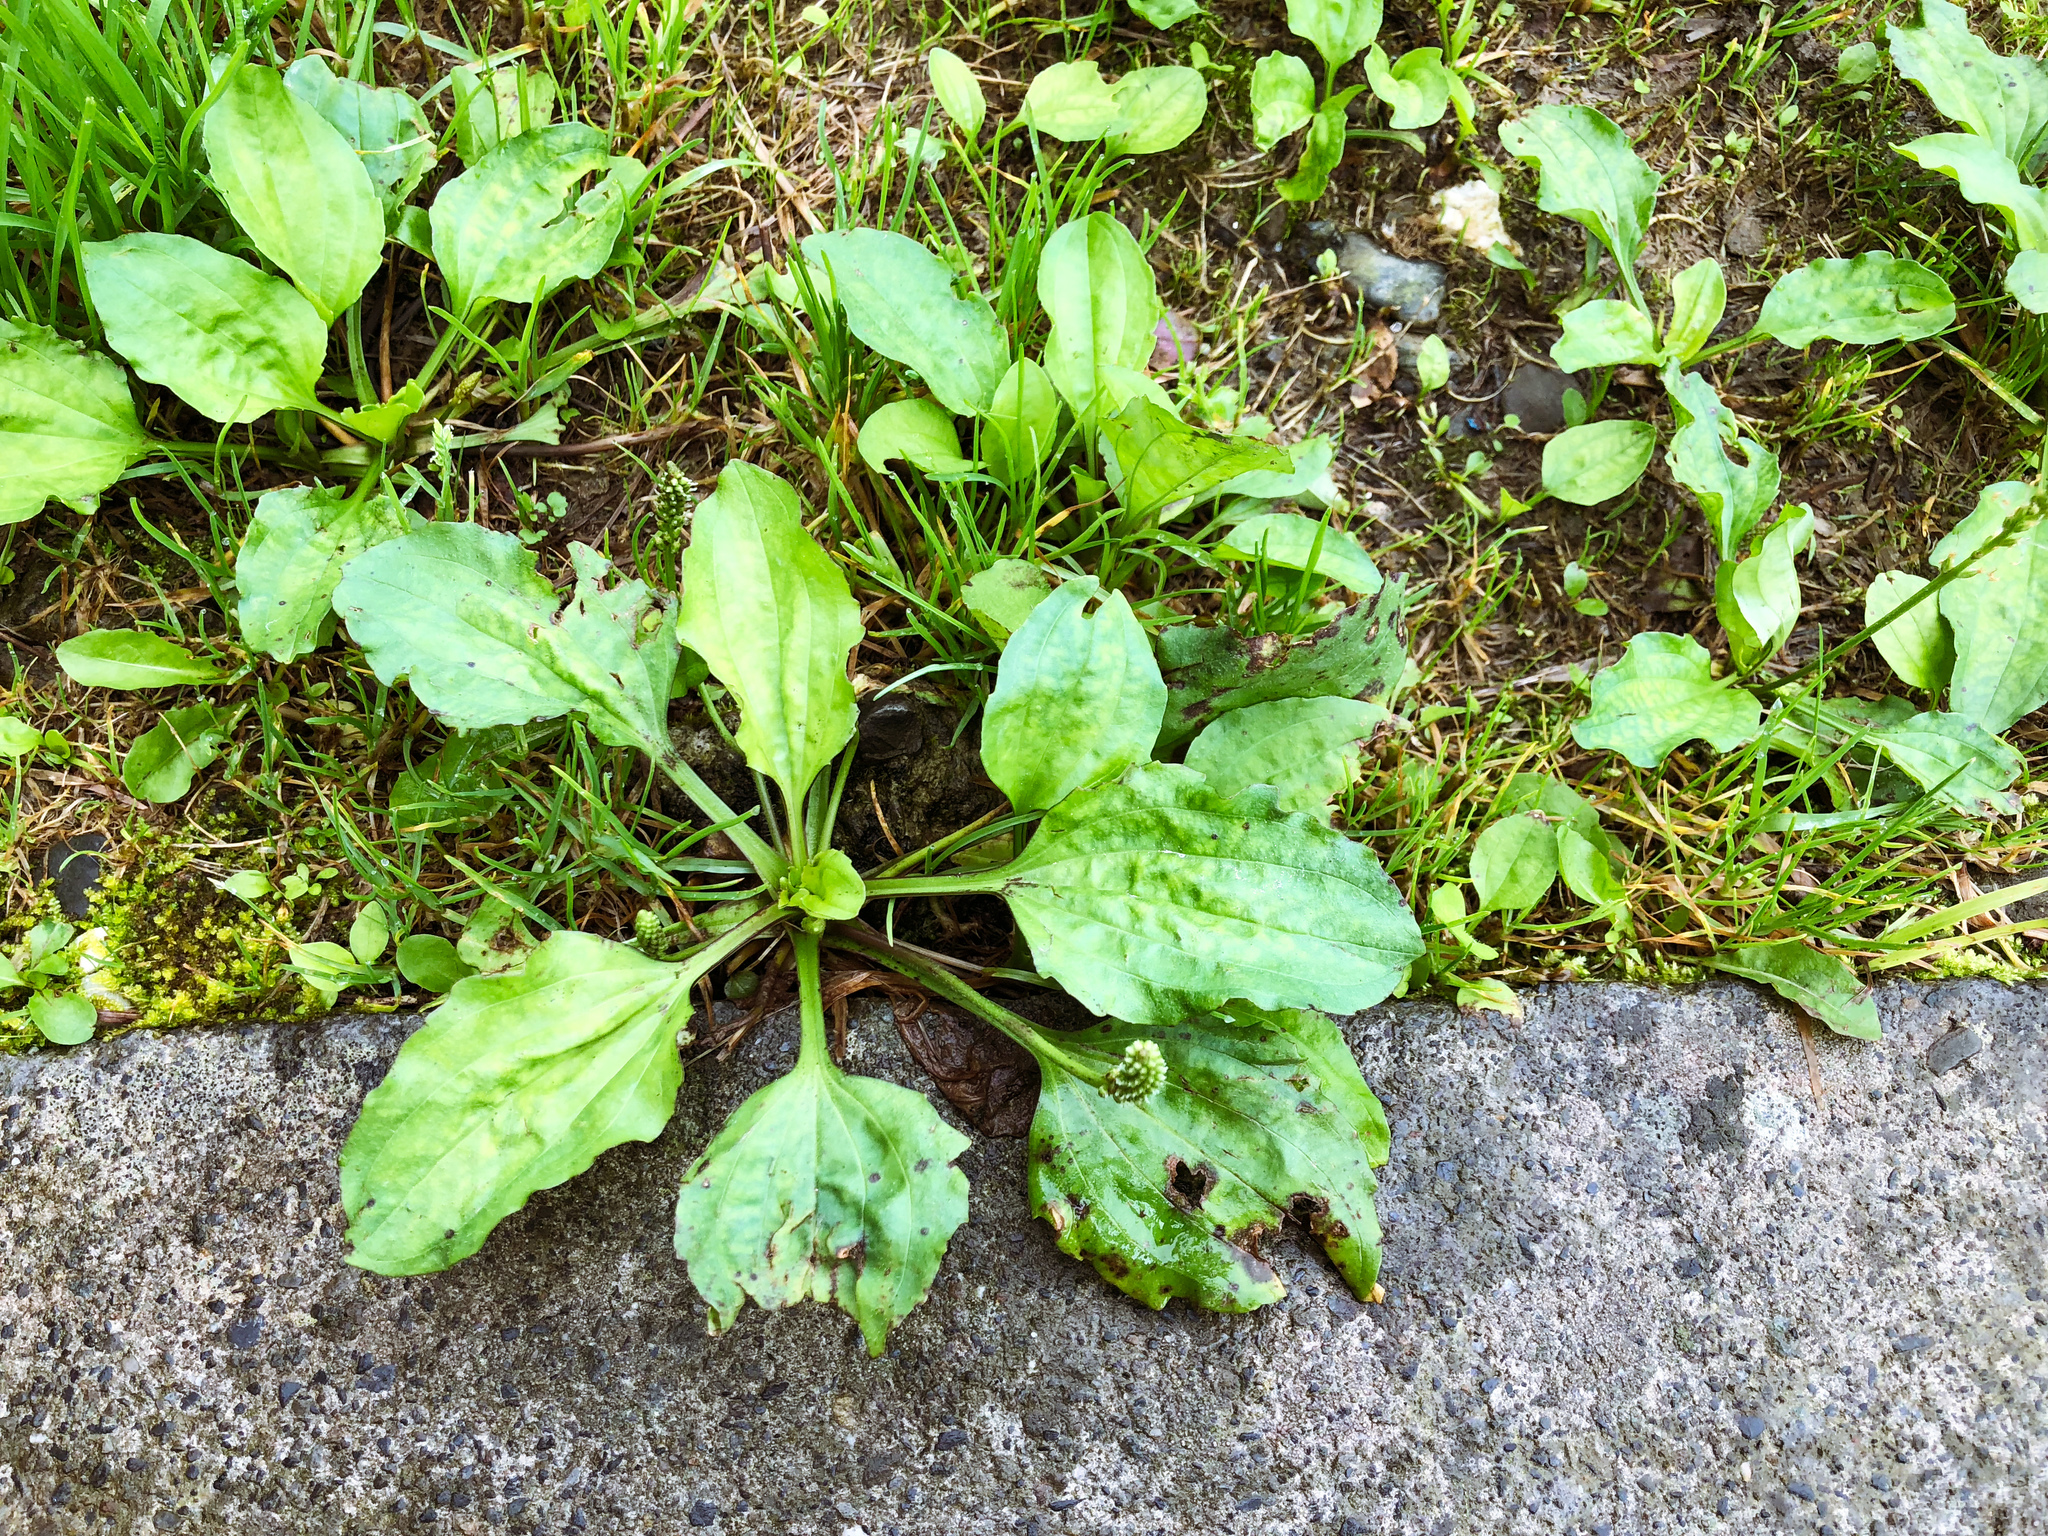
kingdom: Plantae
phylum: Tracheophyta
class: Magnoliopsida
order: Lamiales
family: Plantaginaceae
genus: Plantago
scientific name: Plantago asiatica
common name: Psyllium
